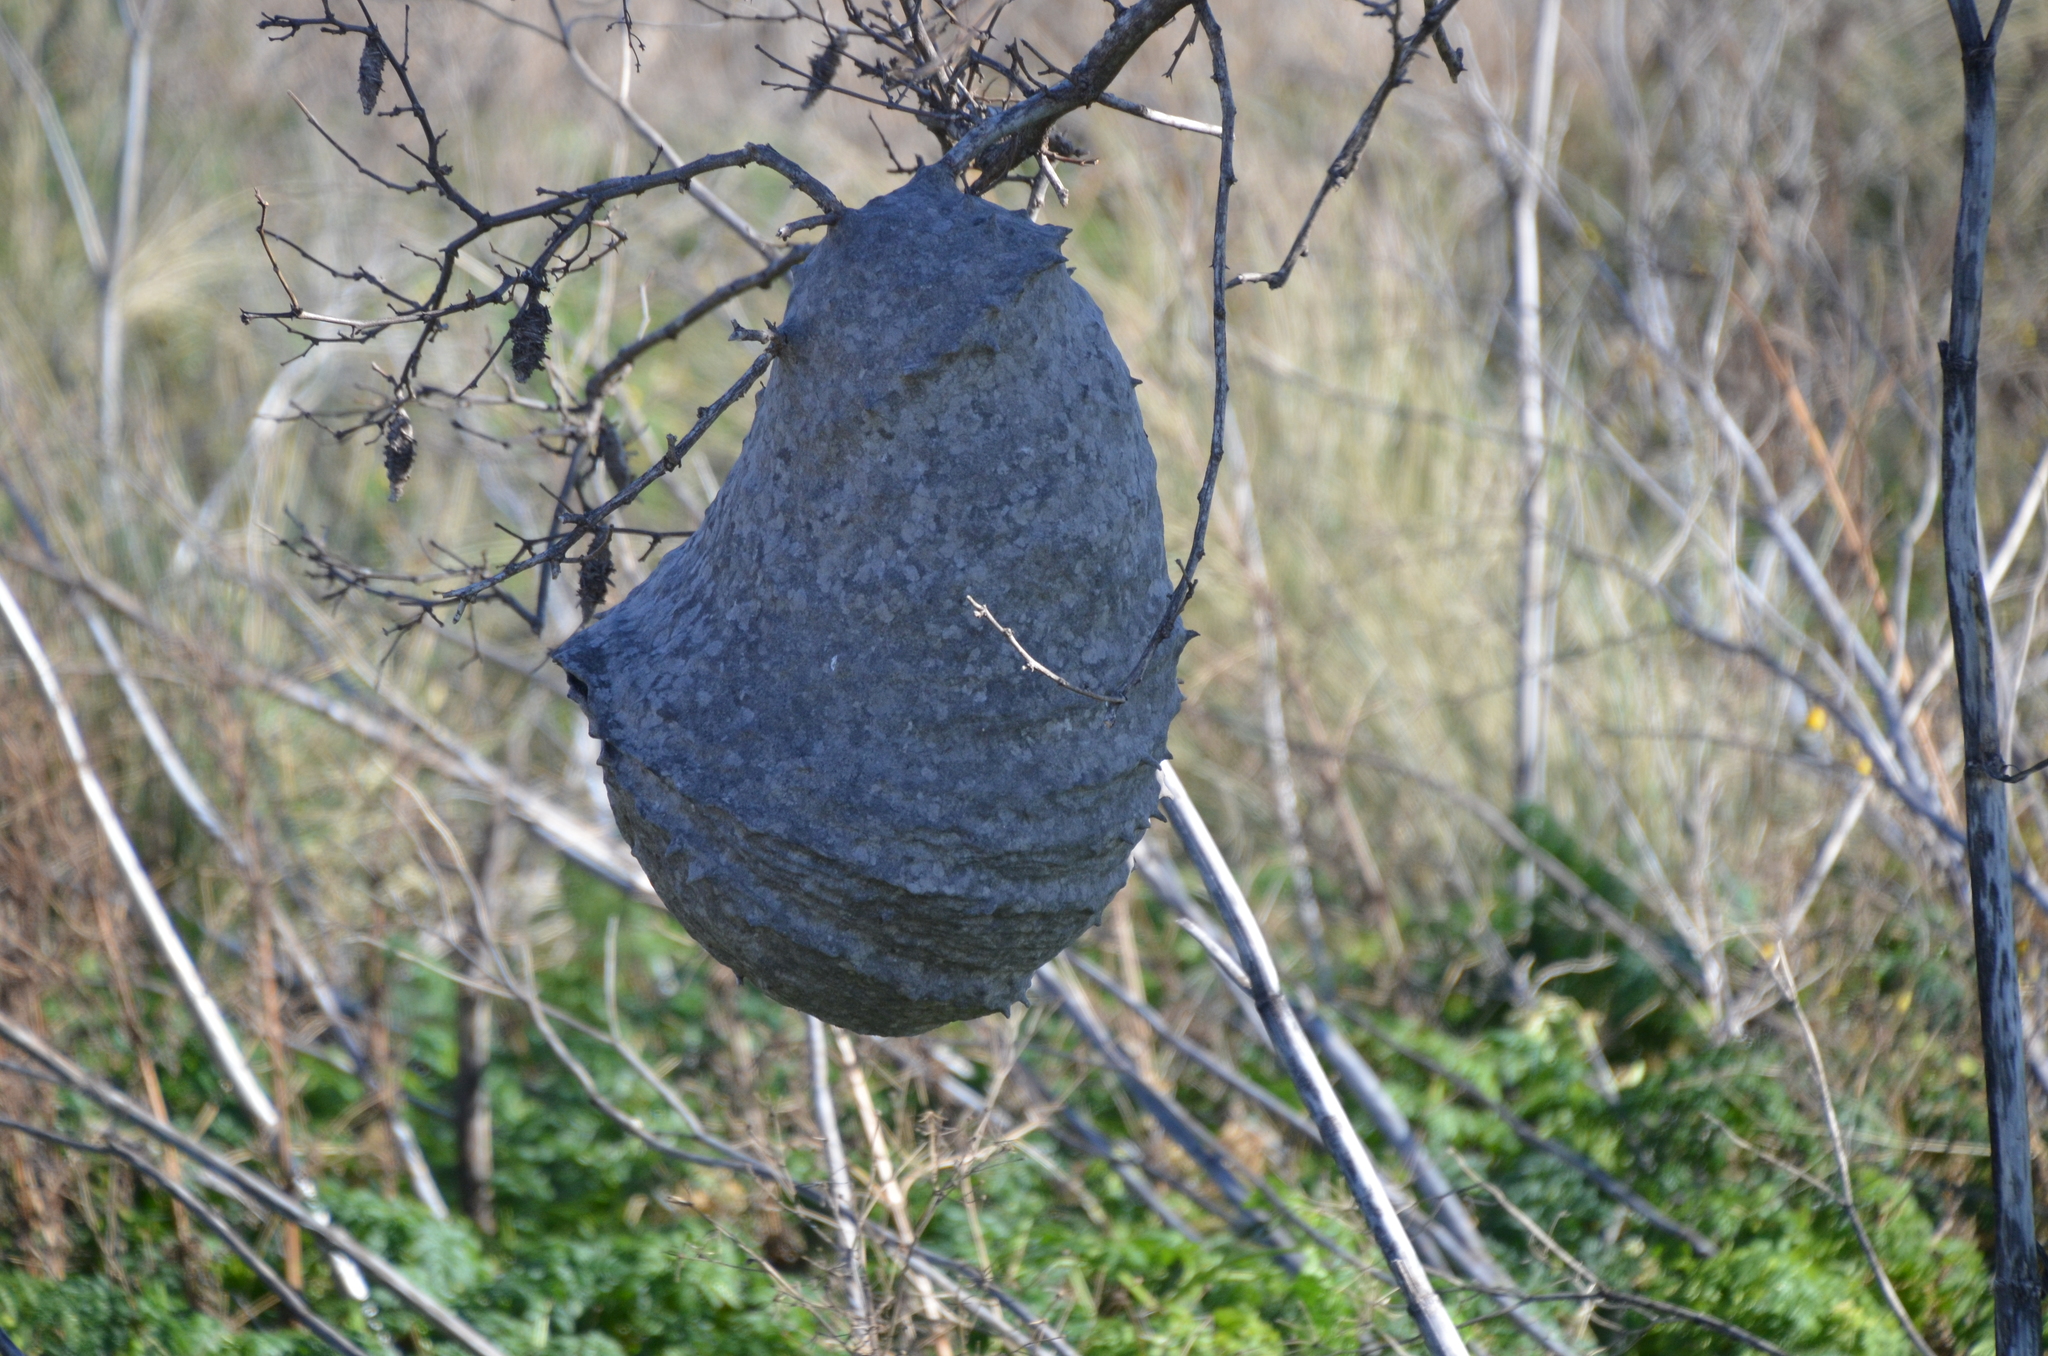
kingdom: Animalia
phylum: Arthropoda
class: Insecta
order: Hymenoptera
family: Eumenidae
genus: Polybia
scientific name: Polybia scutellaris
